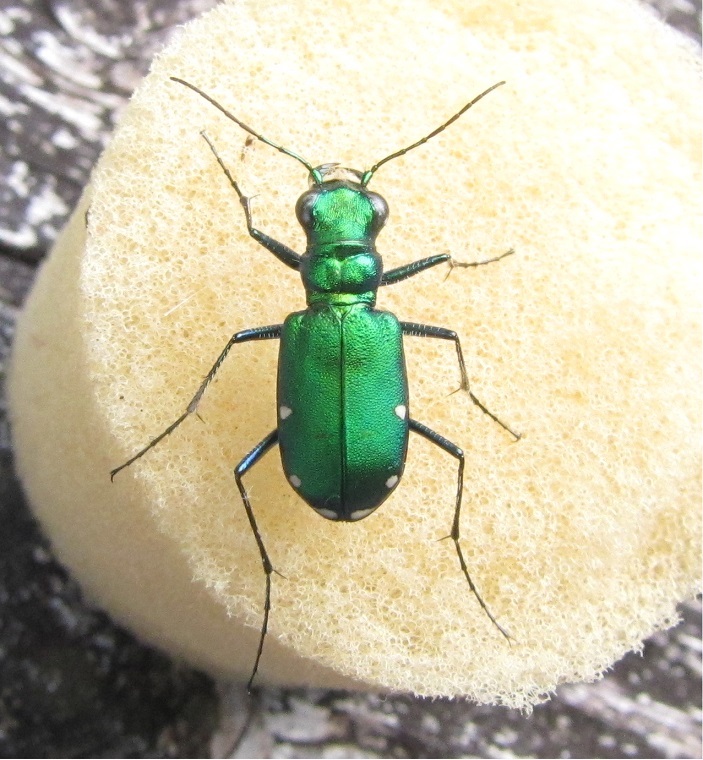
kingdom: Animalia
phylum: Arthropoda
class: Insecta
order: Coleoptera
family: Carabidae
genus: Cicindela
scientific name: Cicindela sexguttata
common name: Six-spotted tiger beetle
